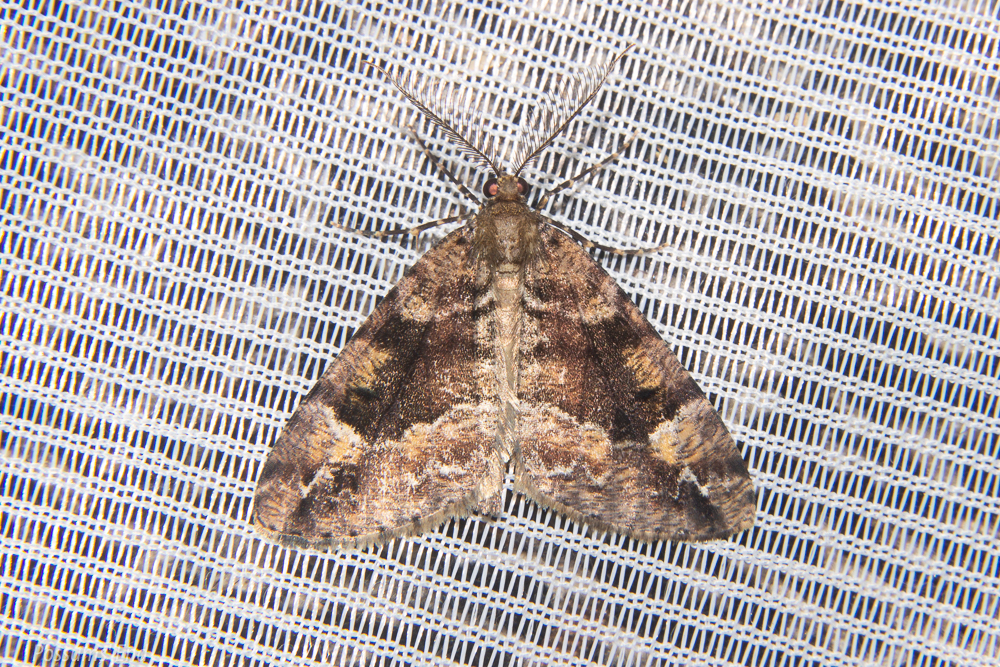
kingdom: Animalia
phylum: Arthropoda
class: Insecta
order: Lepidoptera
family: Geometridae
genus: Pseudocoremia
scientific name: Pseudocoremia productata
